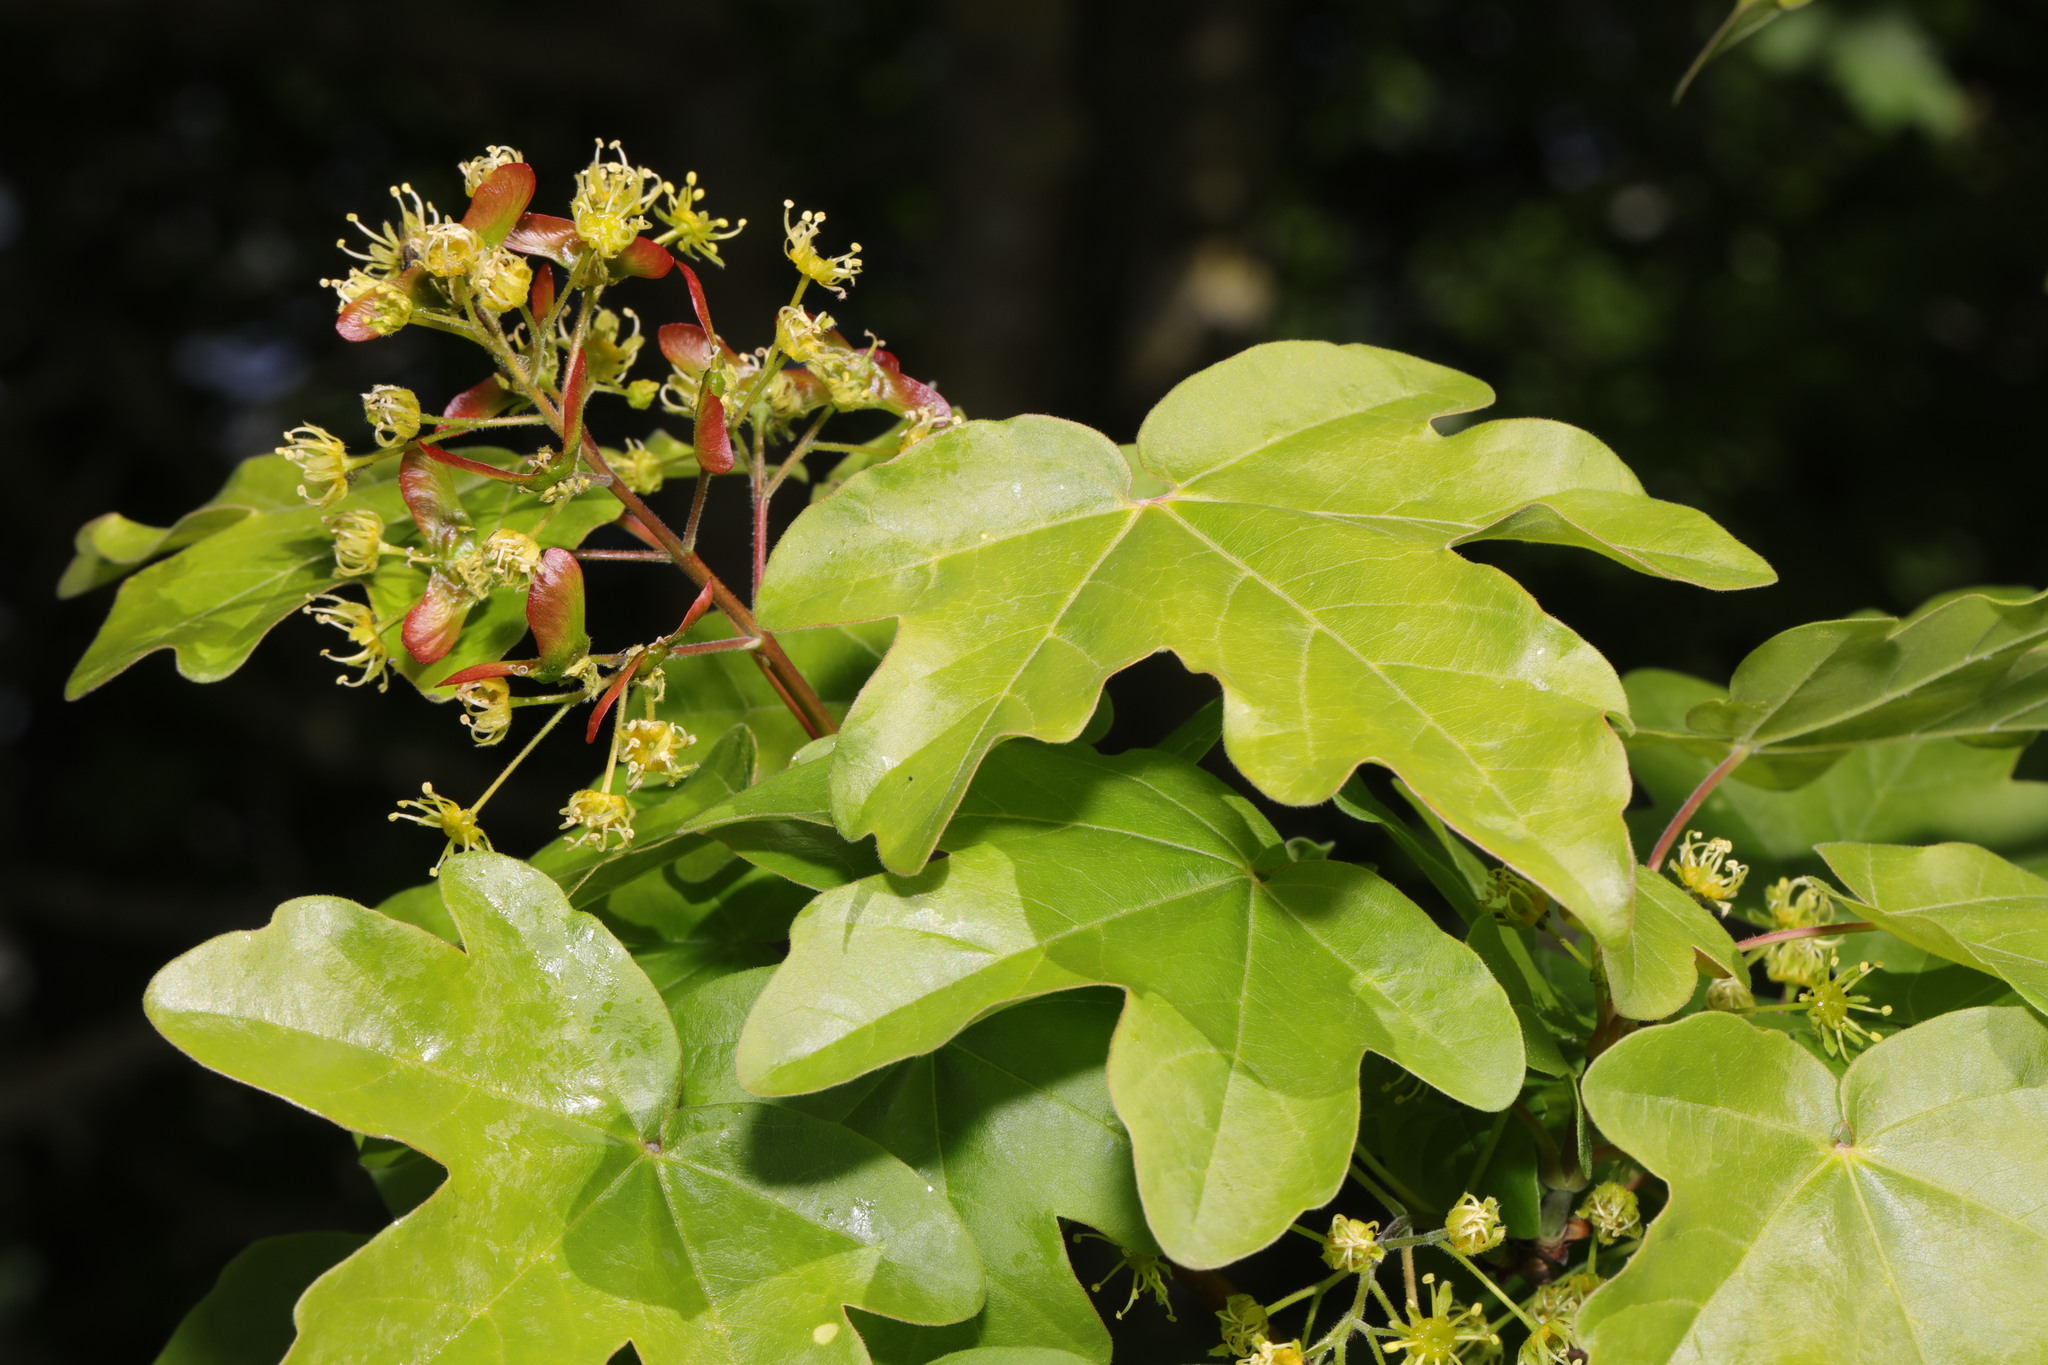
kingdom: Plantae
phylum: Tracheophyta
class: Magnoliopsida
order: Sapindales
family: Sapindaceae
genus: Acer
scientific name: Acer campestre
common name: Field maple
